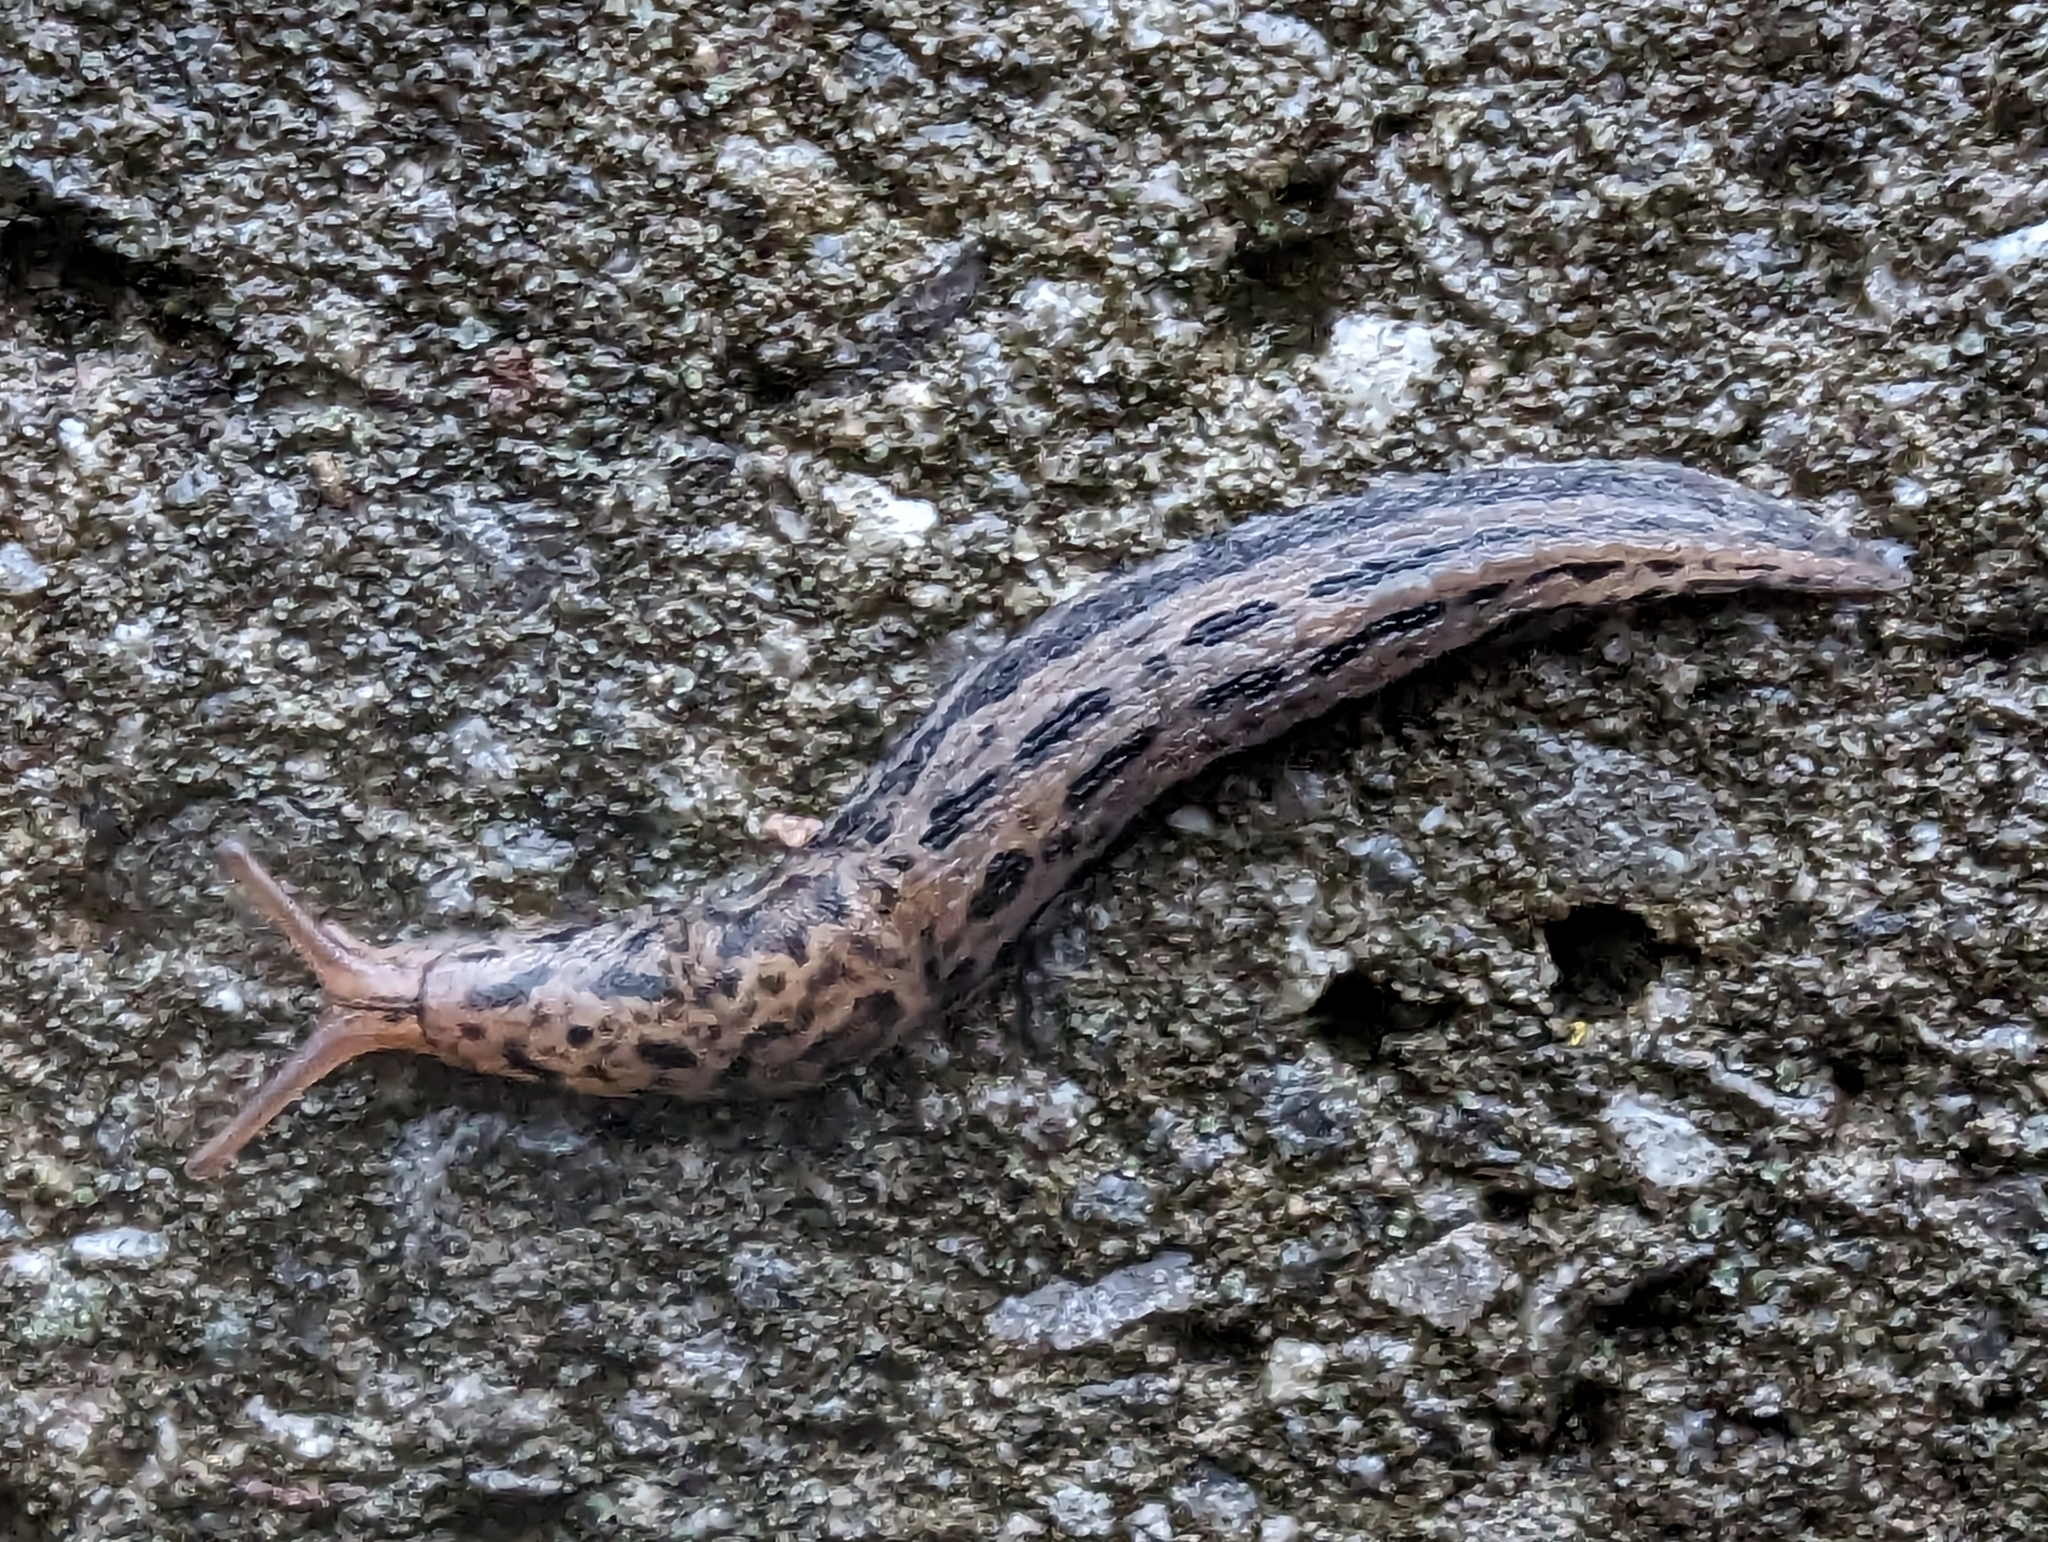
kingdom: Animalia
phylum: Mollusca
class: Gastropoda
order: Stylommatophora
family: Limacidae
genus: Limax
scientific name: Limax maximus
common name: Great grey slug
